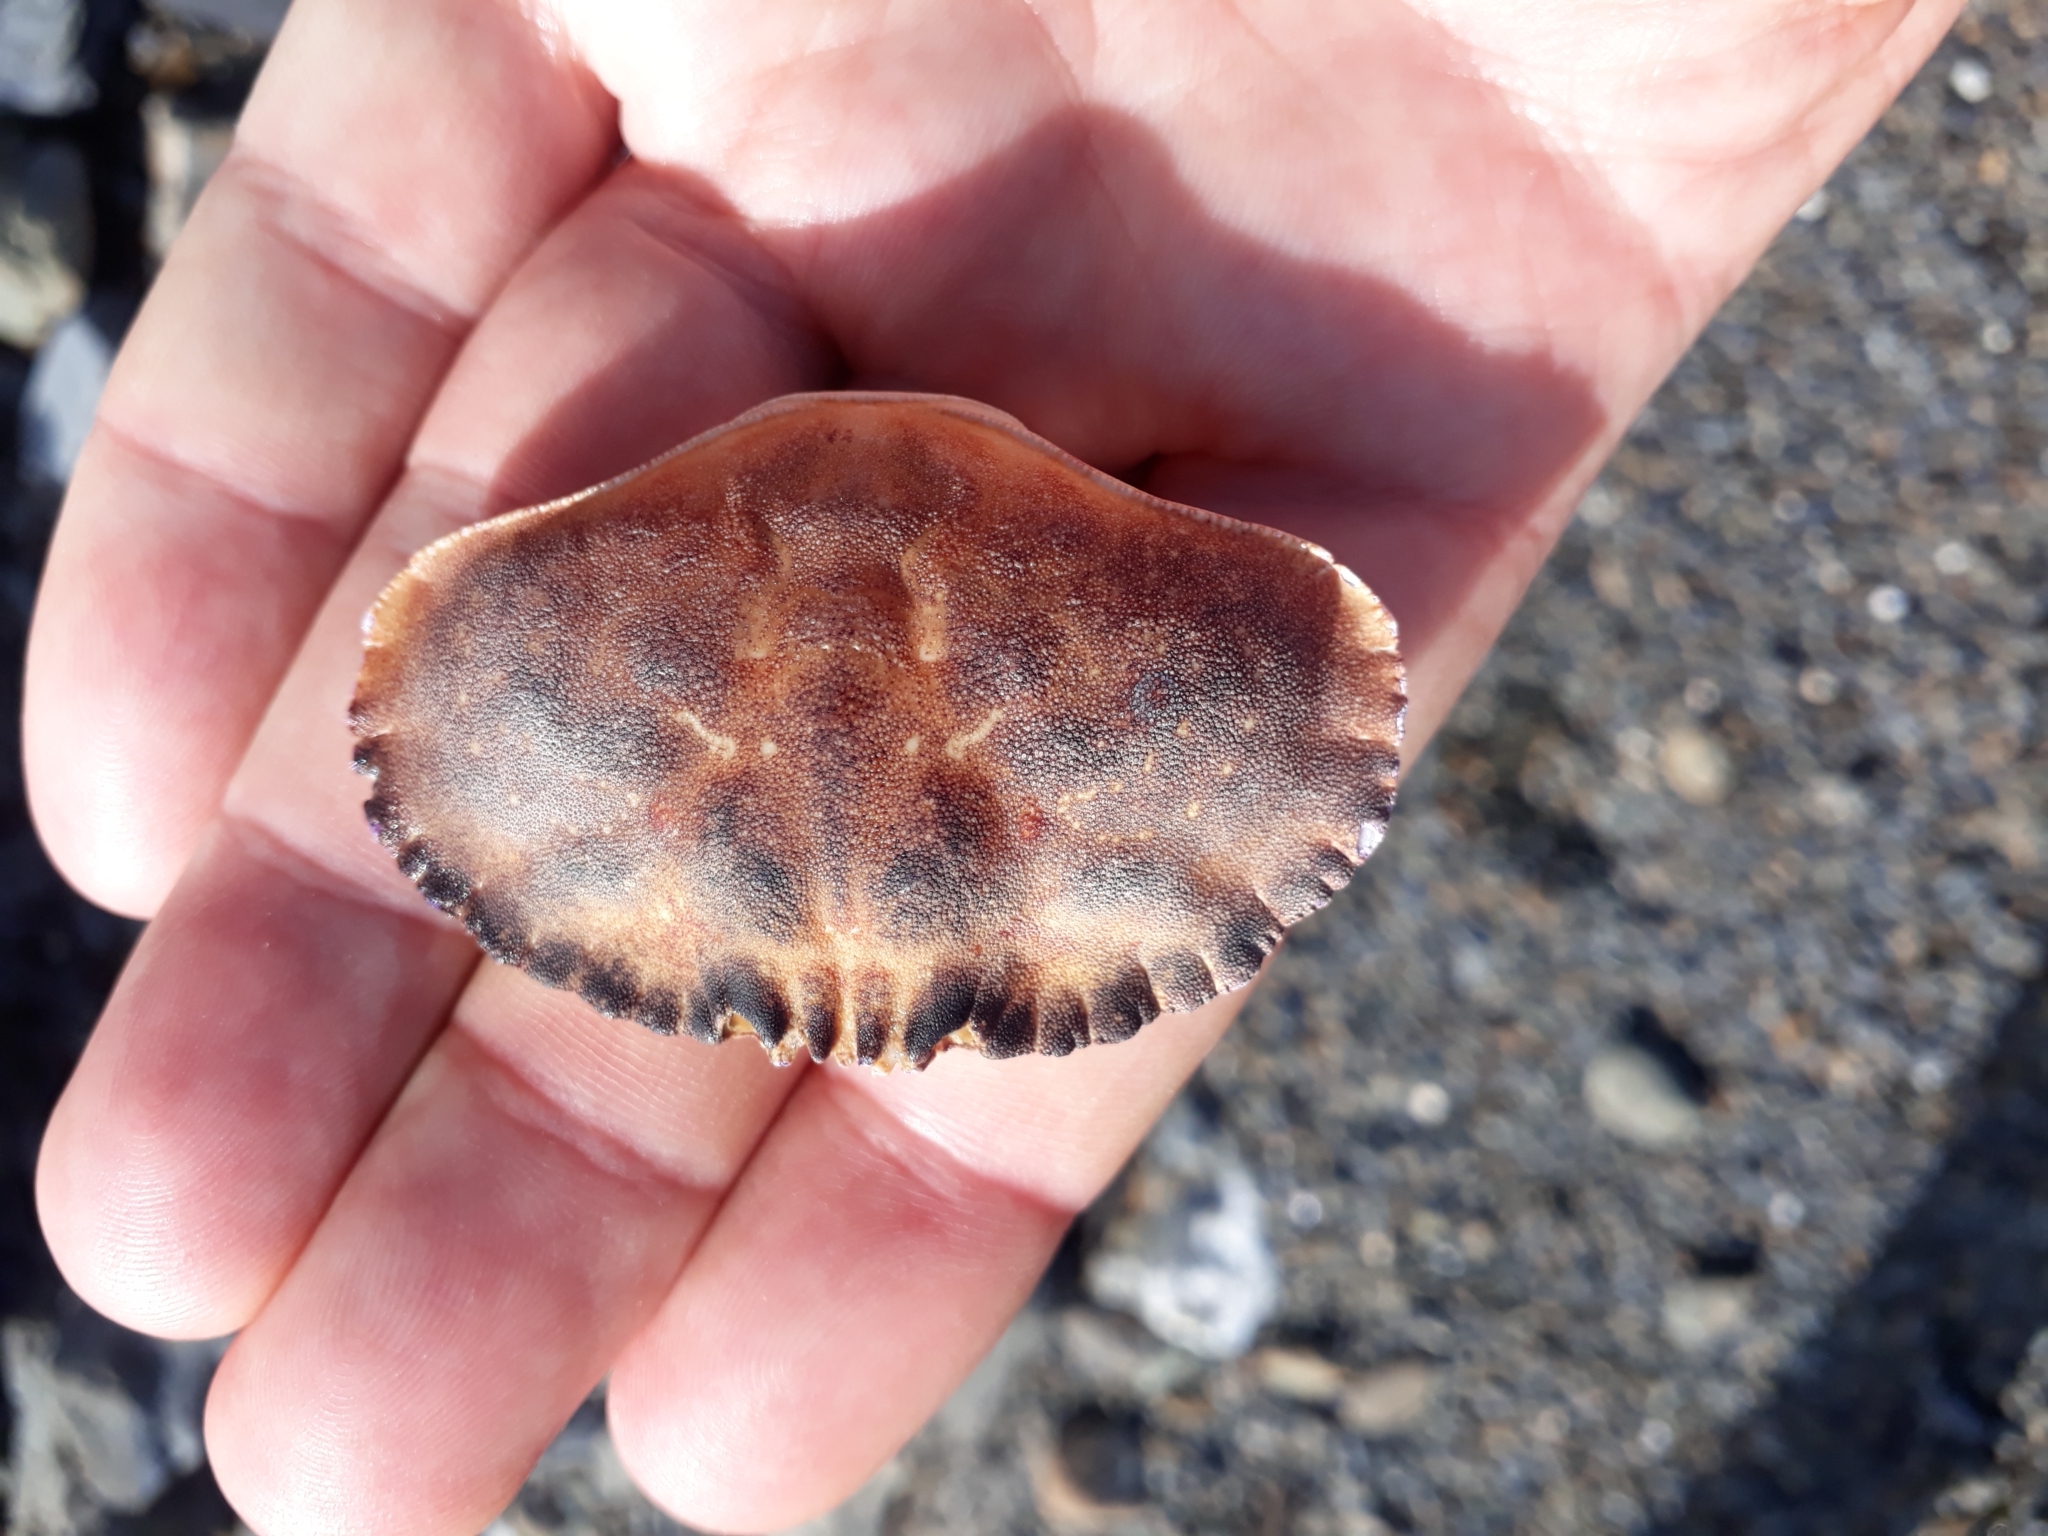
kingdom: Animalia
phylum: Arthropoda
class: Malacostraca
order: Decapoda
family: Cancridae
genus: Metacarcinus
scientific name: Metacarcinus novaezelandiae
